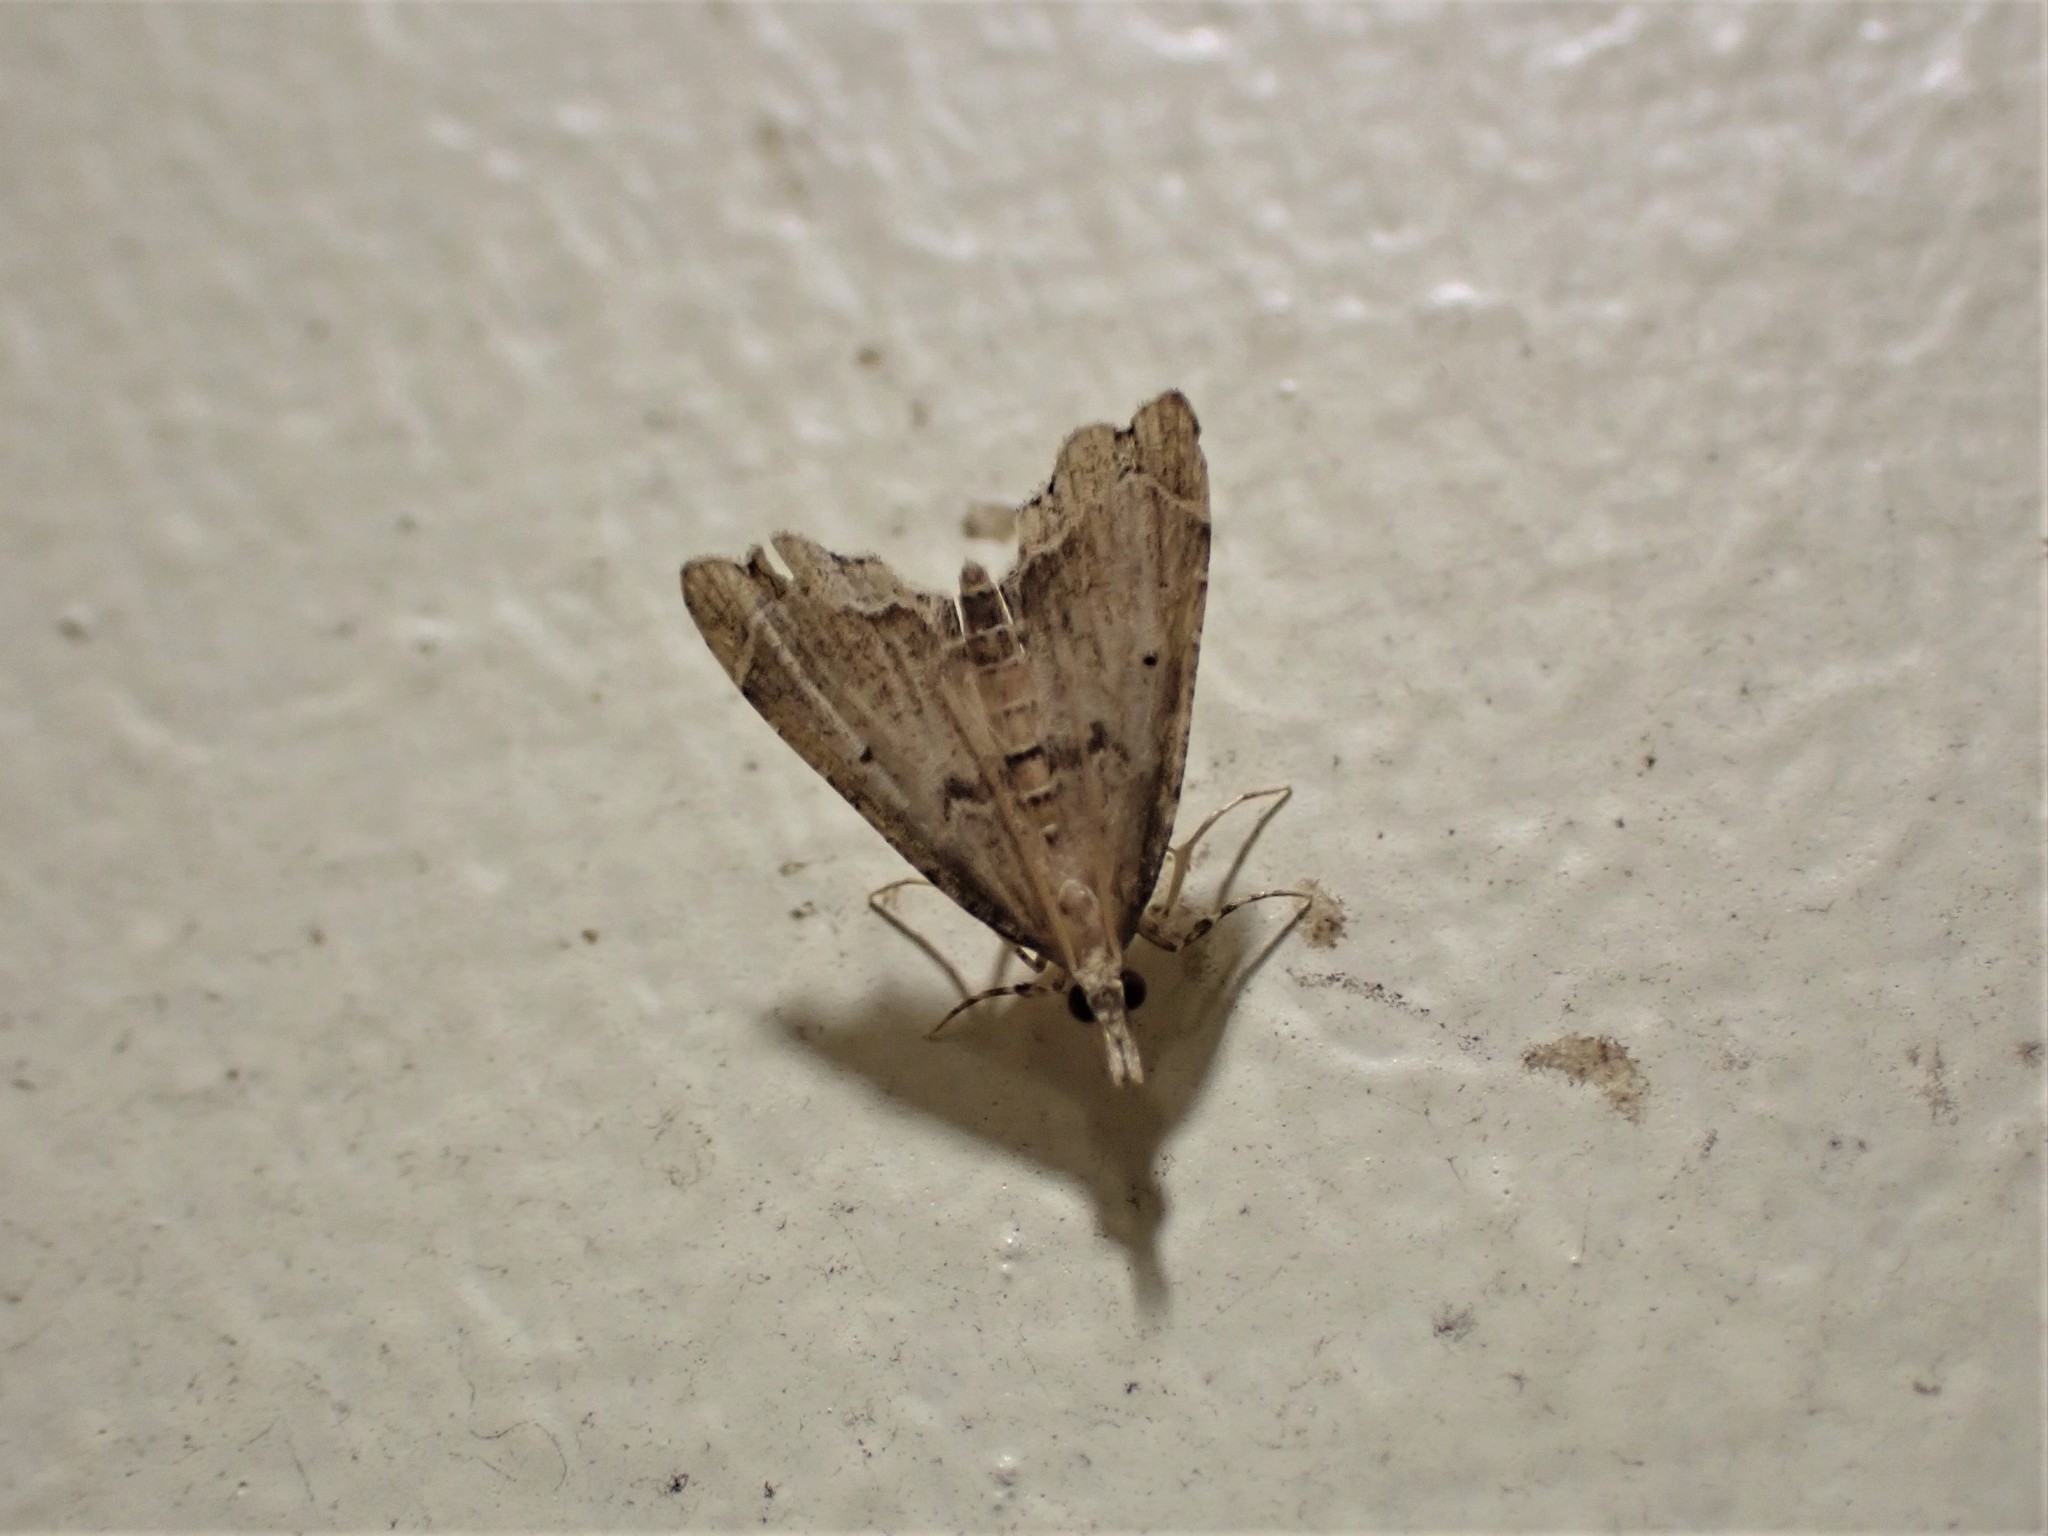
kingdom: Animalia
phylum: Arthropoda
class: Insecta
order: Lepidoptera
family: Crambidae
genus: Diplopseustis
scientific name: Diplopseustis perieresalis
